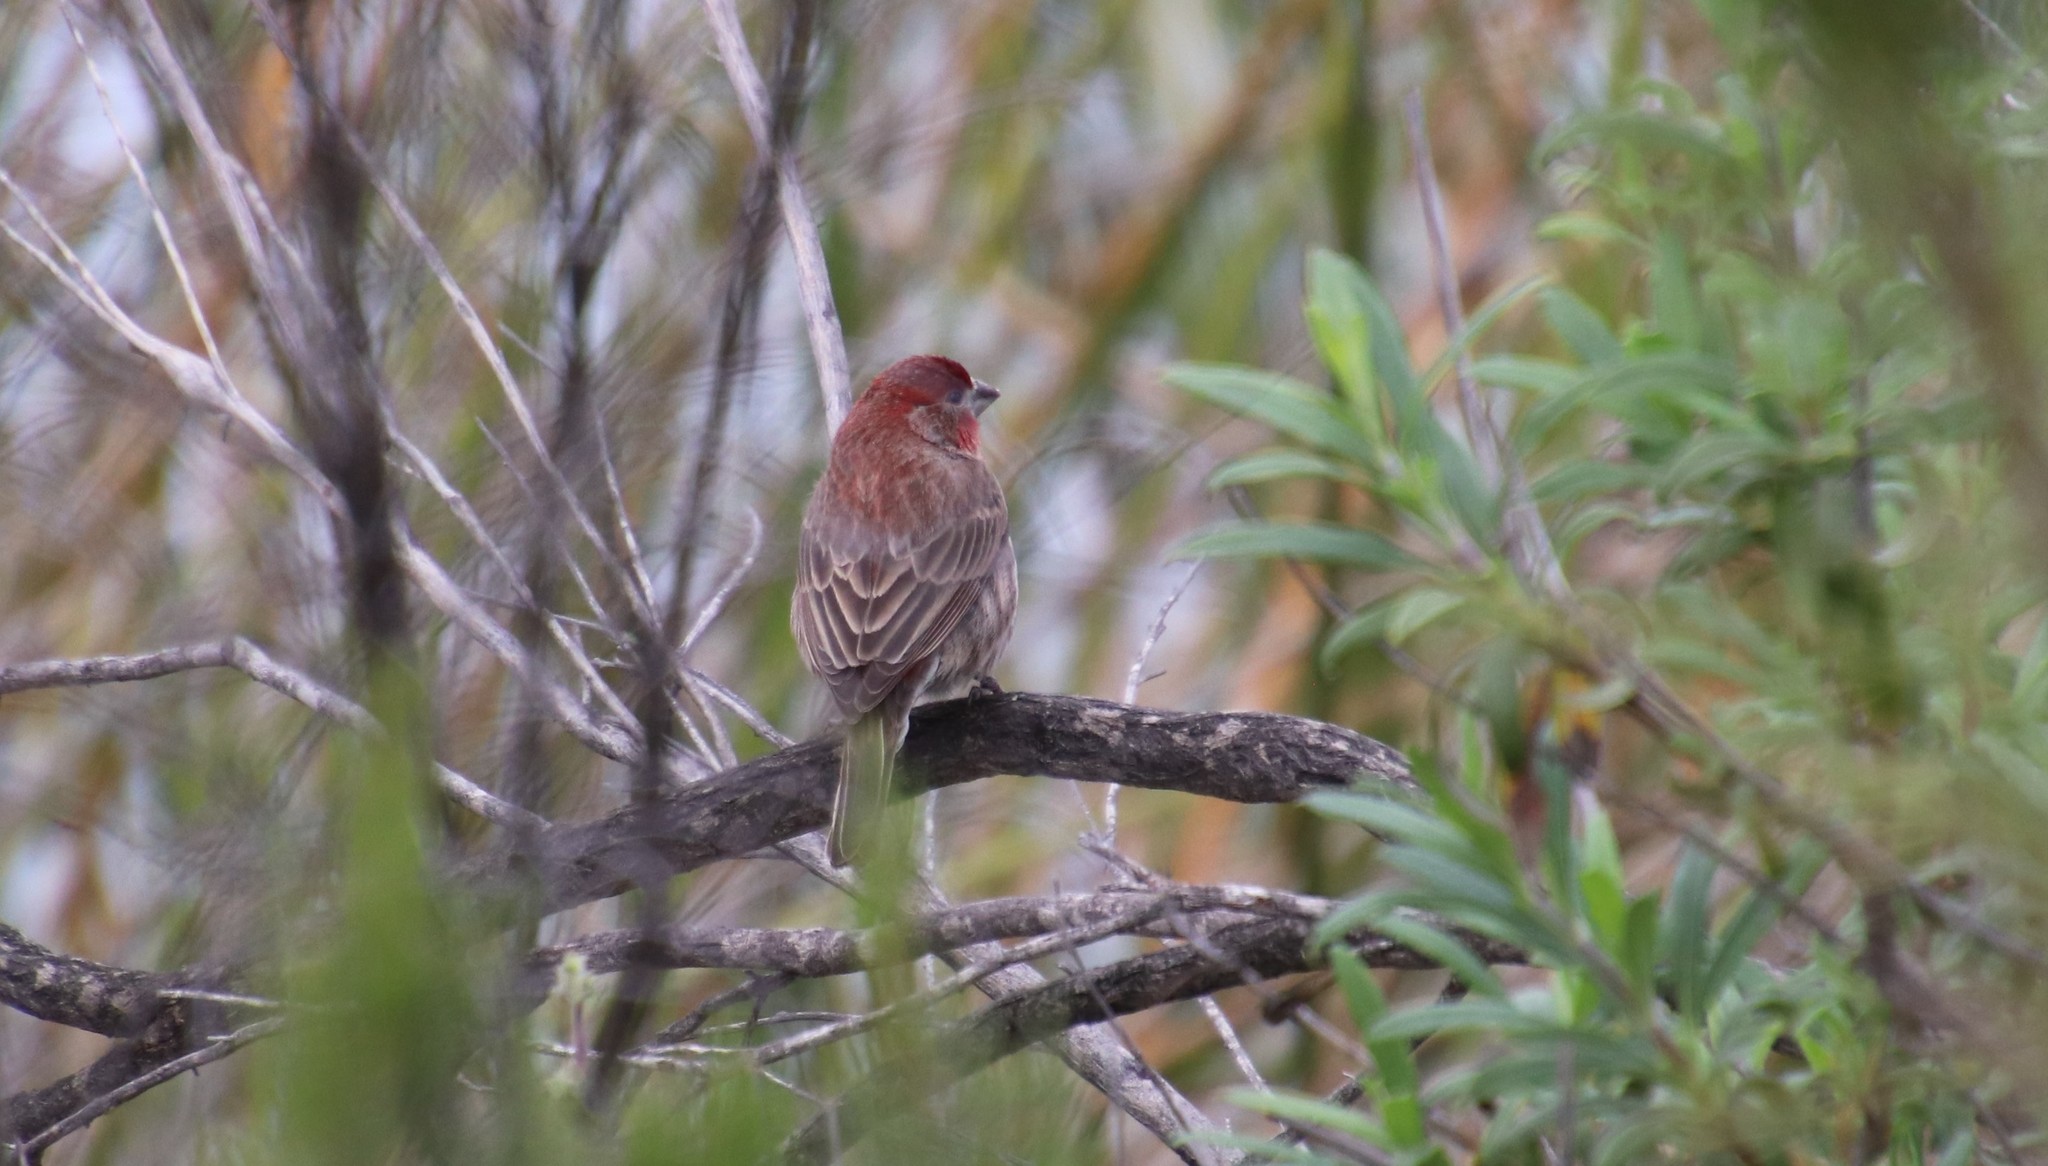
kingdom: Animalia
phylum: Chordata
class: Aves
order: Passeriformes
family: Fringillidae
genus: Haemorhous
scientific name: Haemorhous mexicanus
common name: House finch
